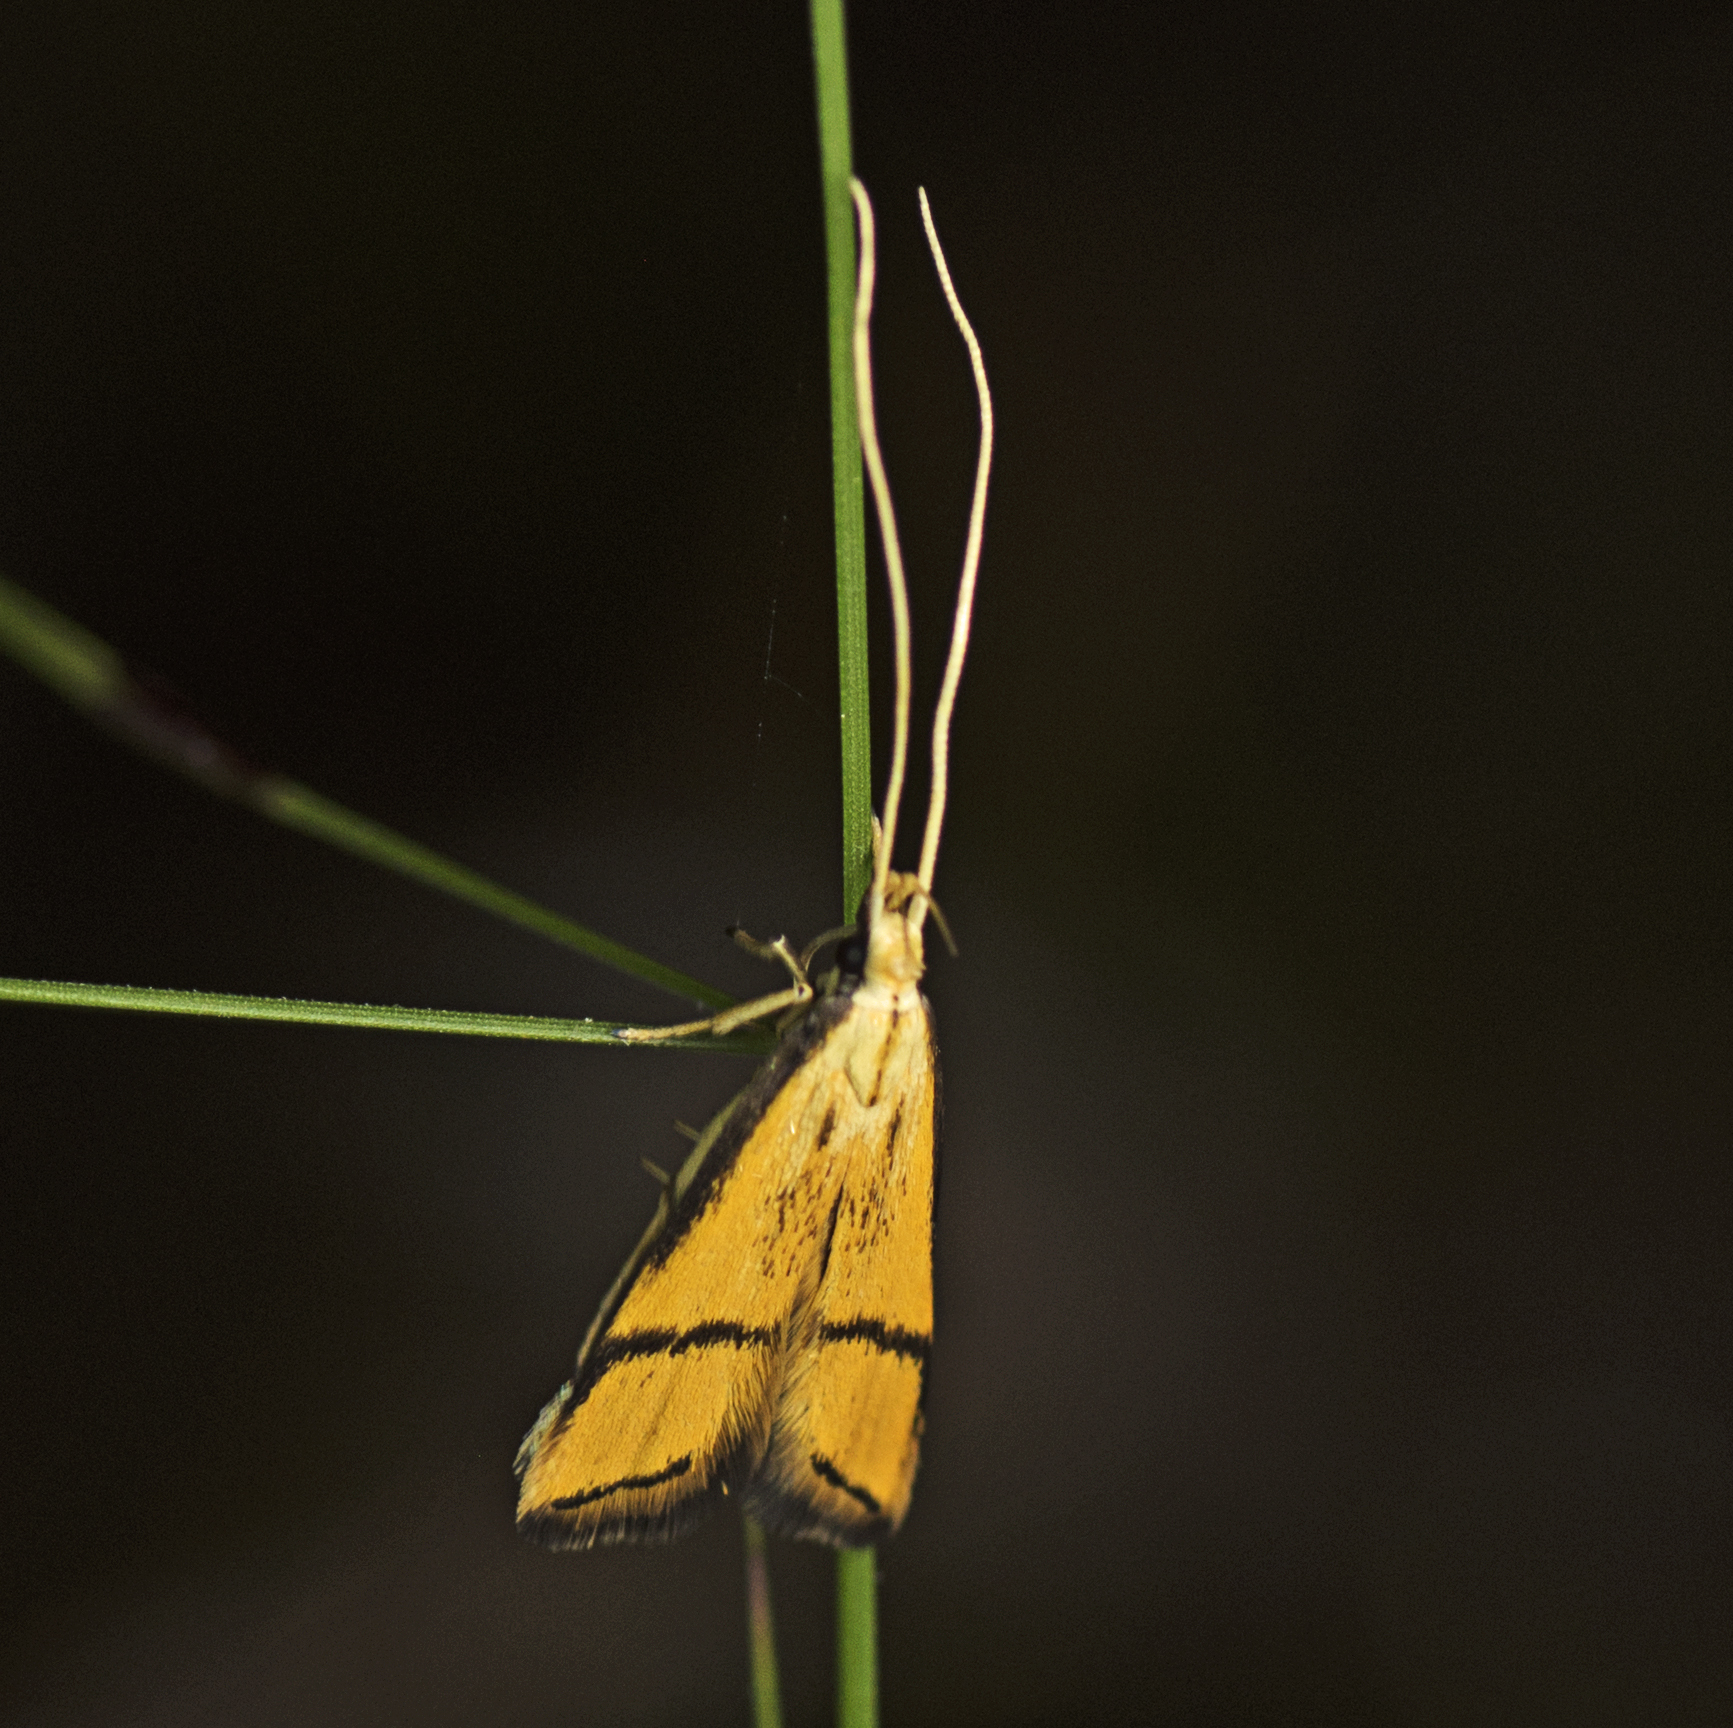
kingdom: Animalia
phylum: Arthropoda
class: Insecta
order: Lepidoptera
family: Lecithoceridae
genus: Crocanthes
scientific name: Crocanthes perigrapta
